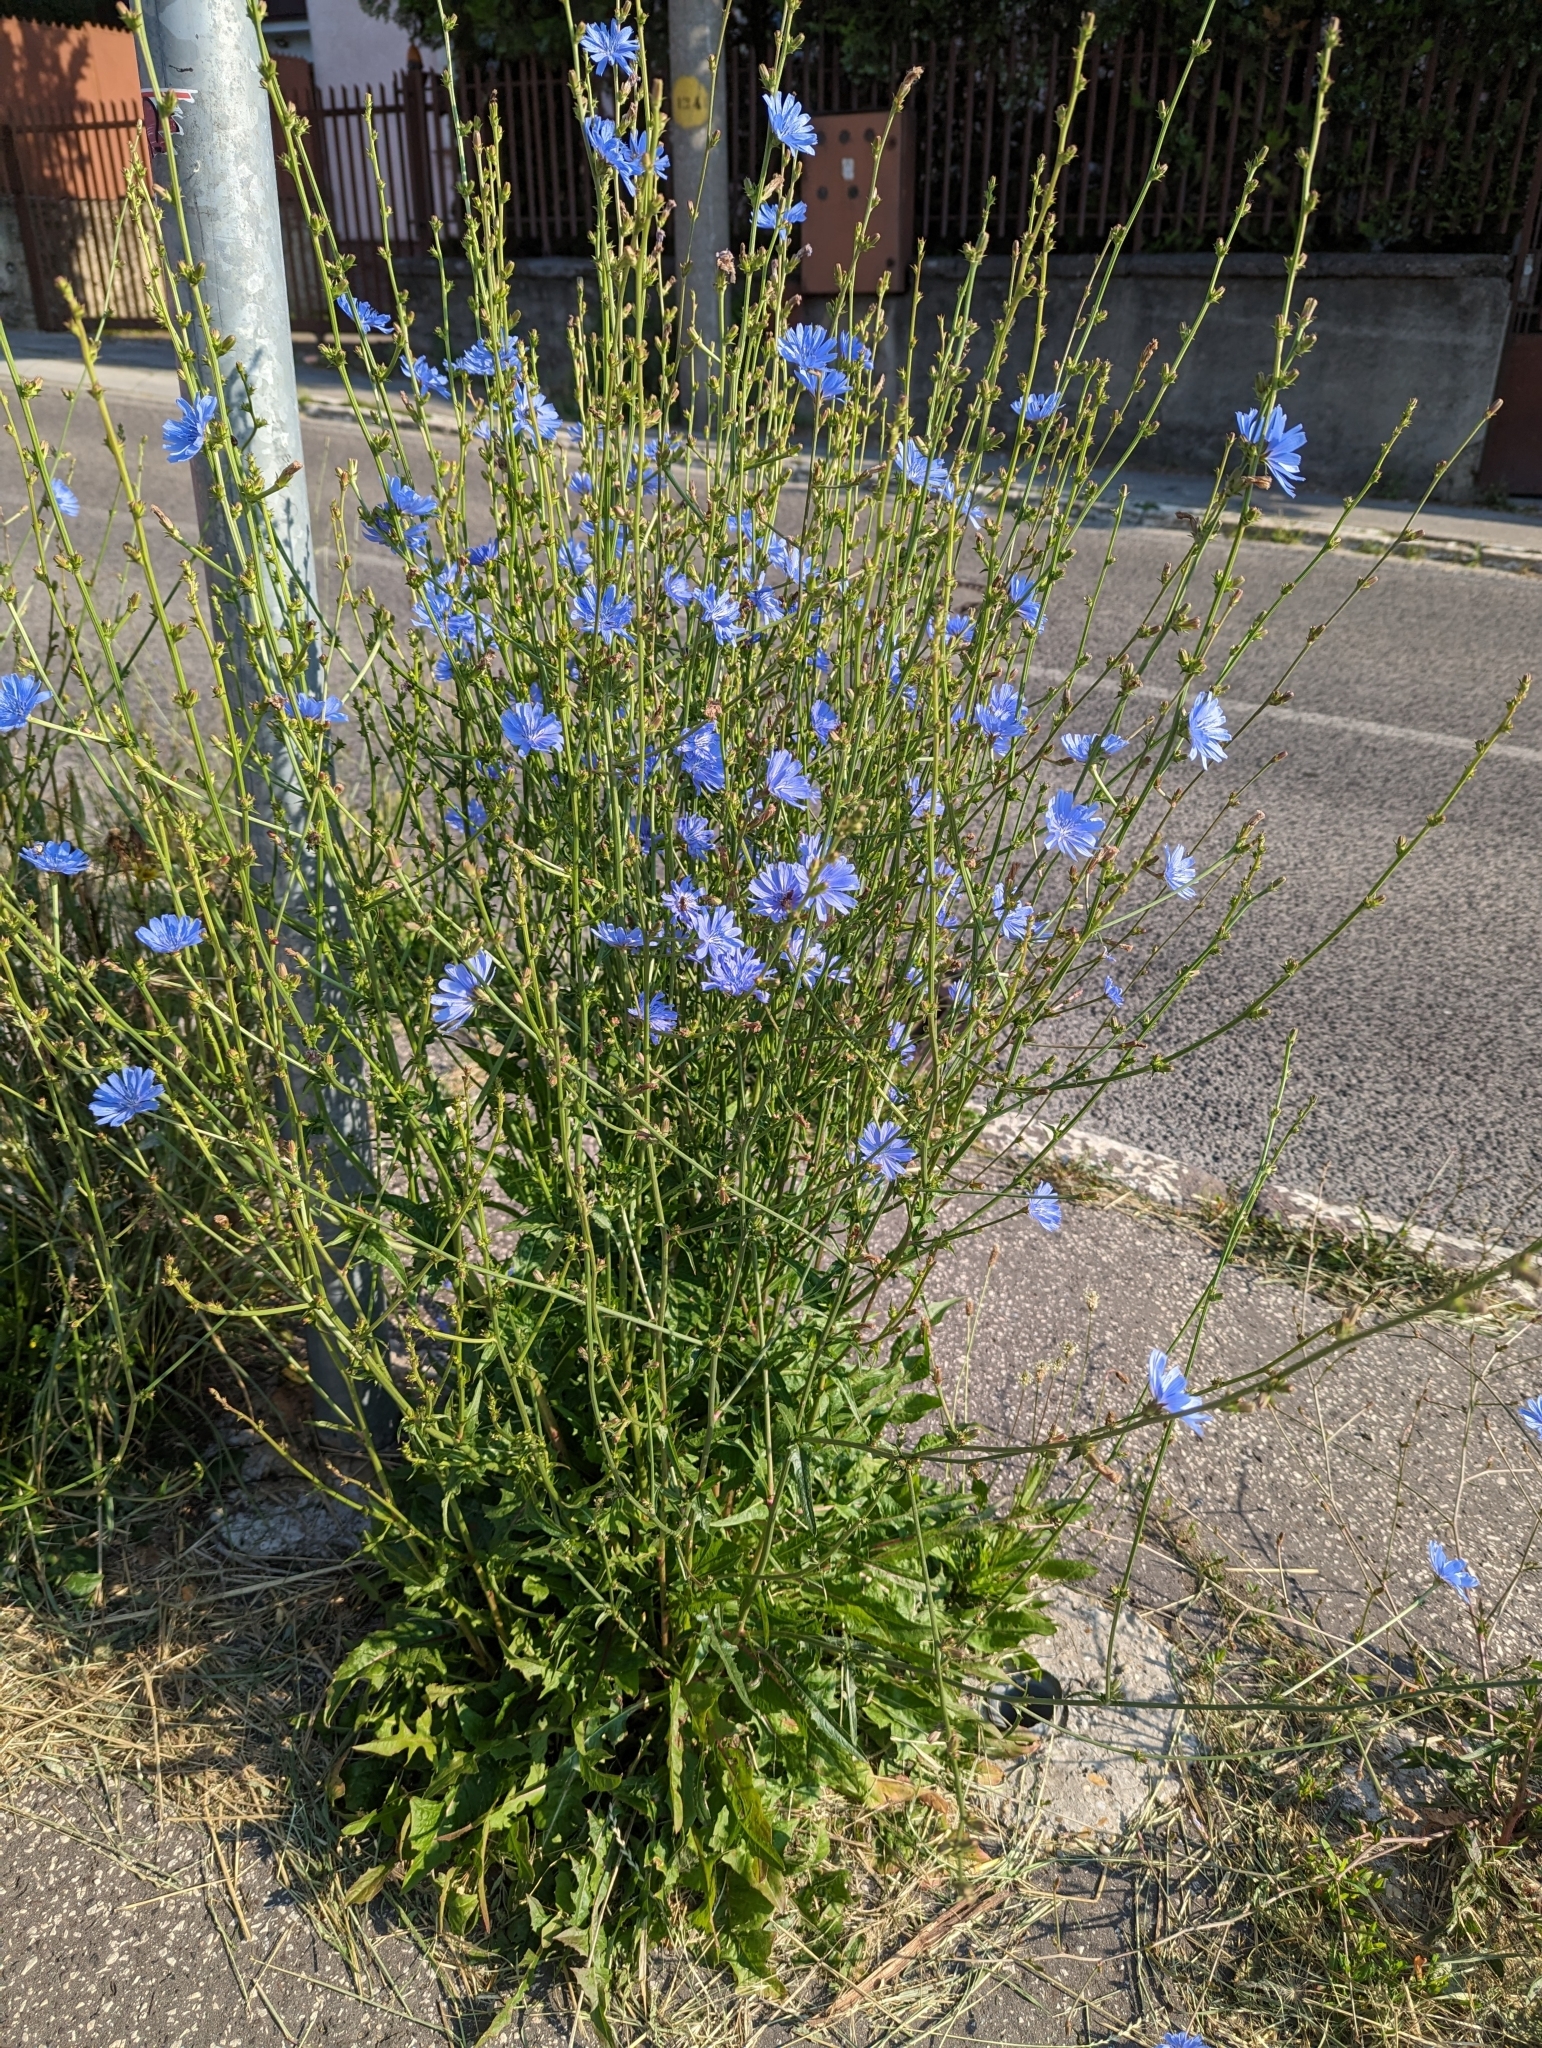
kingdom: Plantae
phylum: Tracheophyta
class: Magnoliopsida
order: Asterales
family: Asteraceae
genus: Cichorium
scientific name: Cichorium intybus
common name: Chicory
